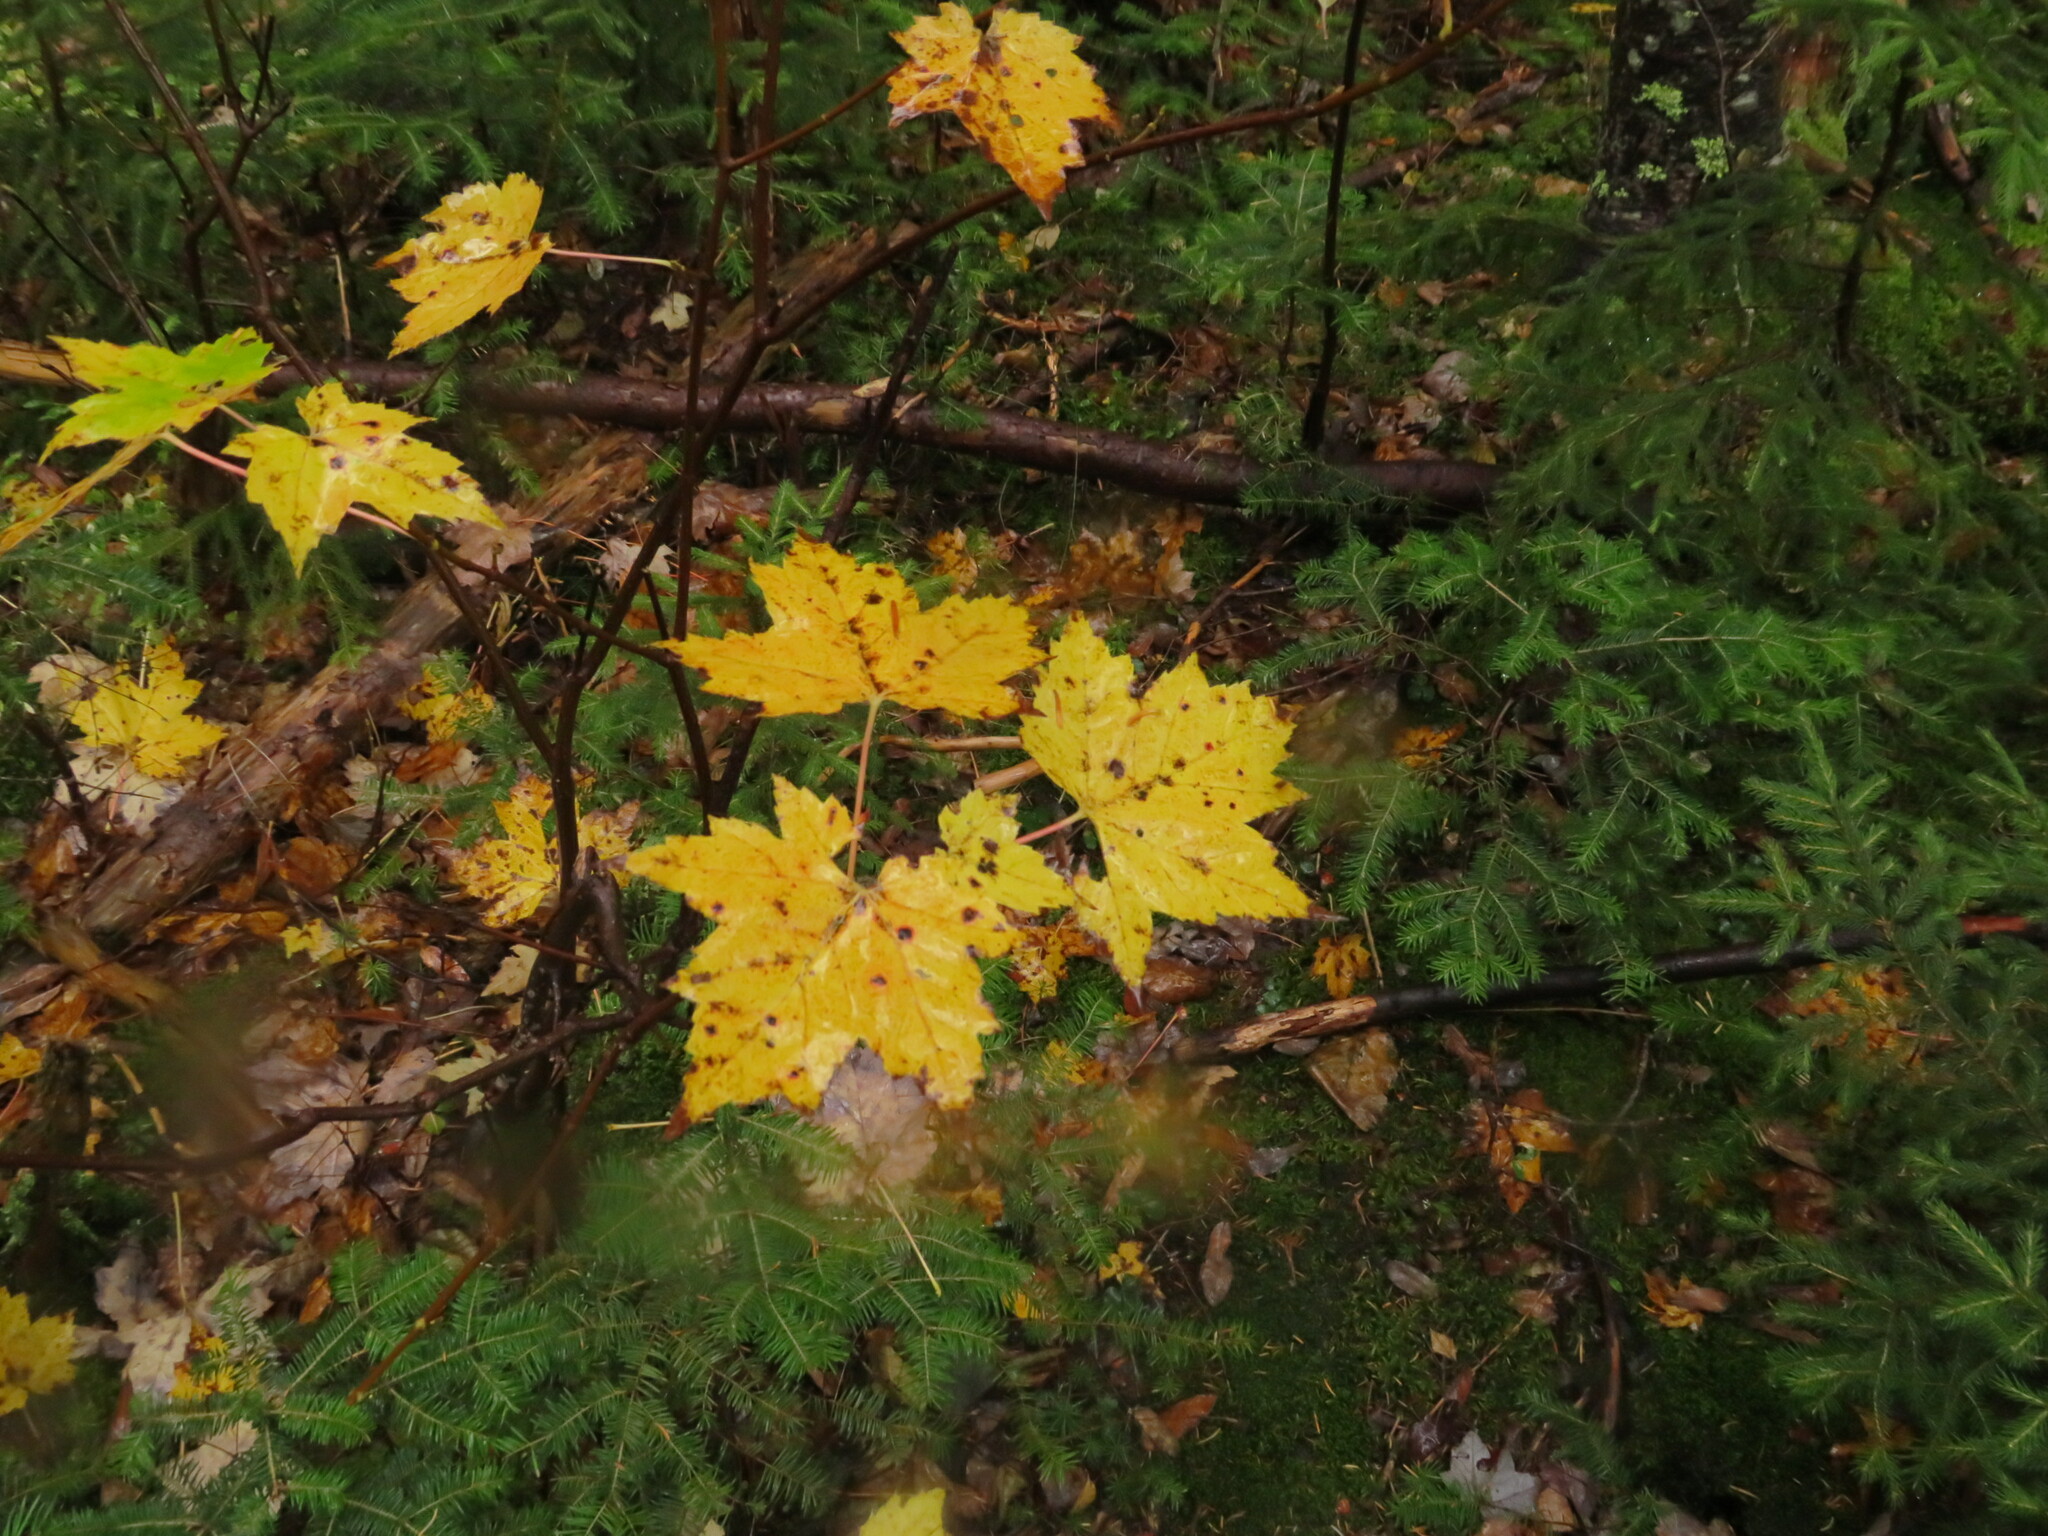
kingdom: Plantae
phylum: Tracheophyta
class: Magnoliopsida
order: Sapindales
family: Sapindaceae
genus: Acer
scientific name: Acer rubrum
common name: Red maple
